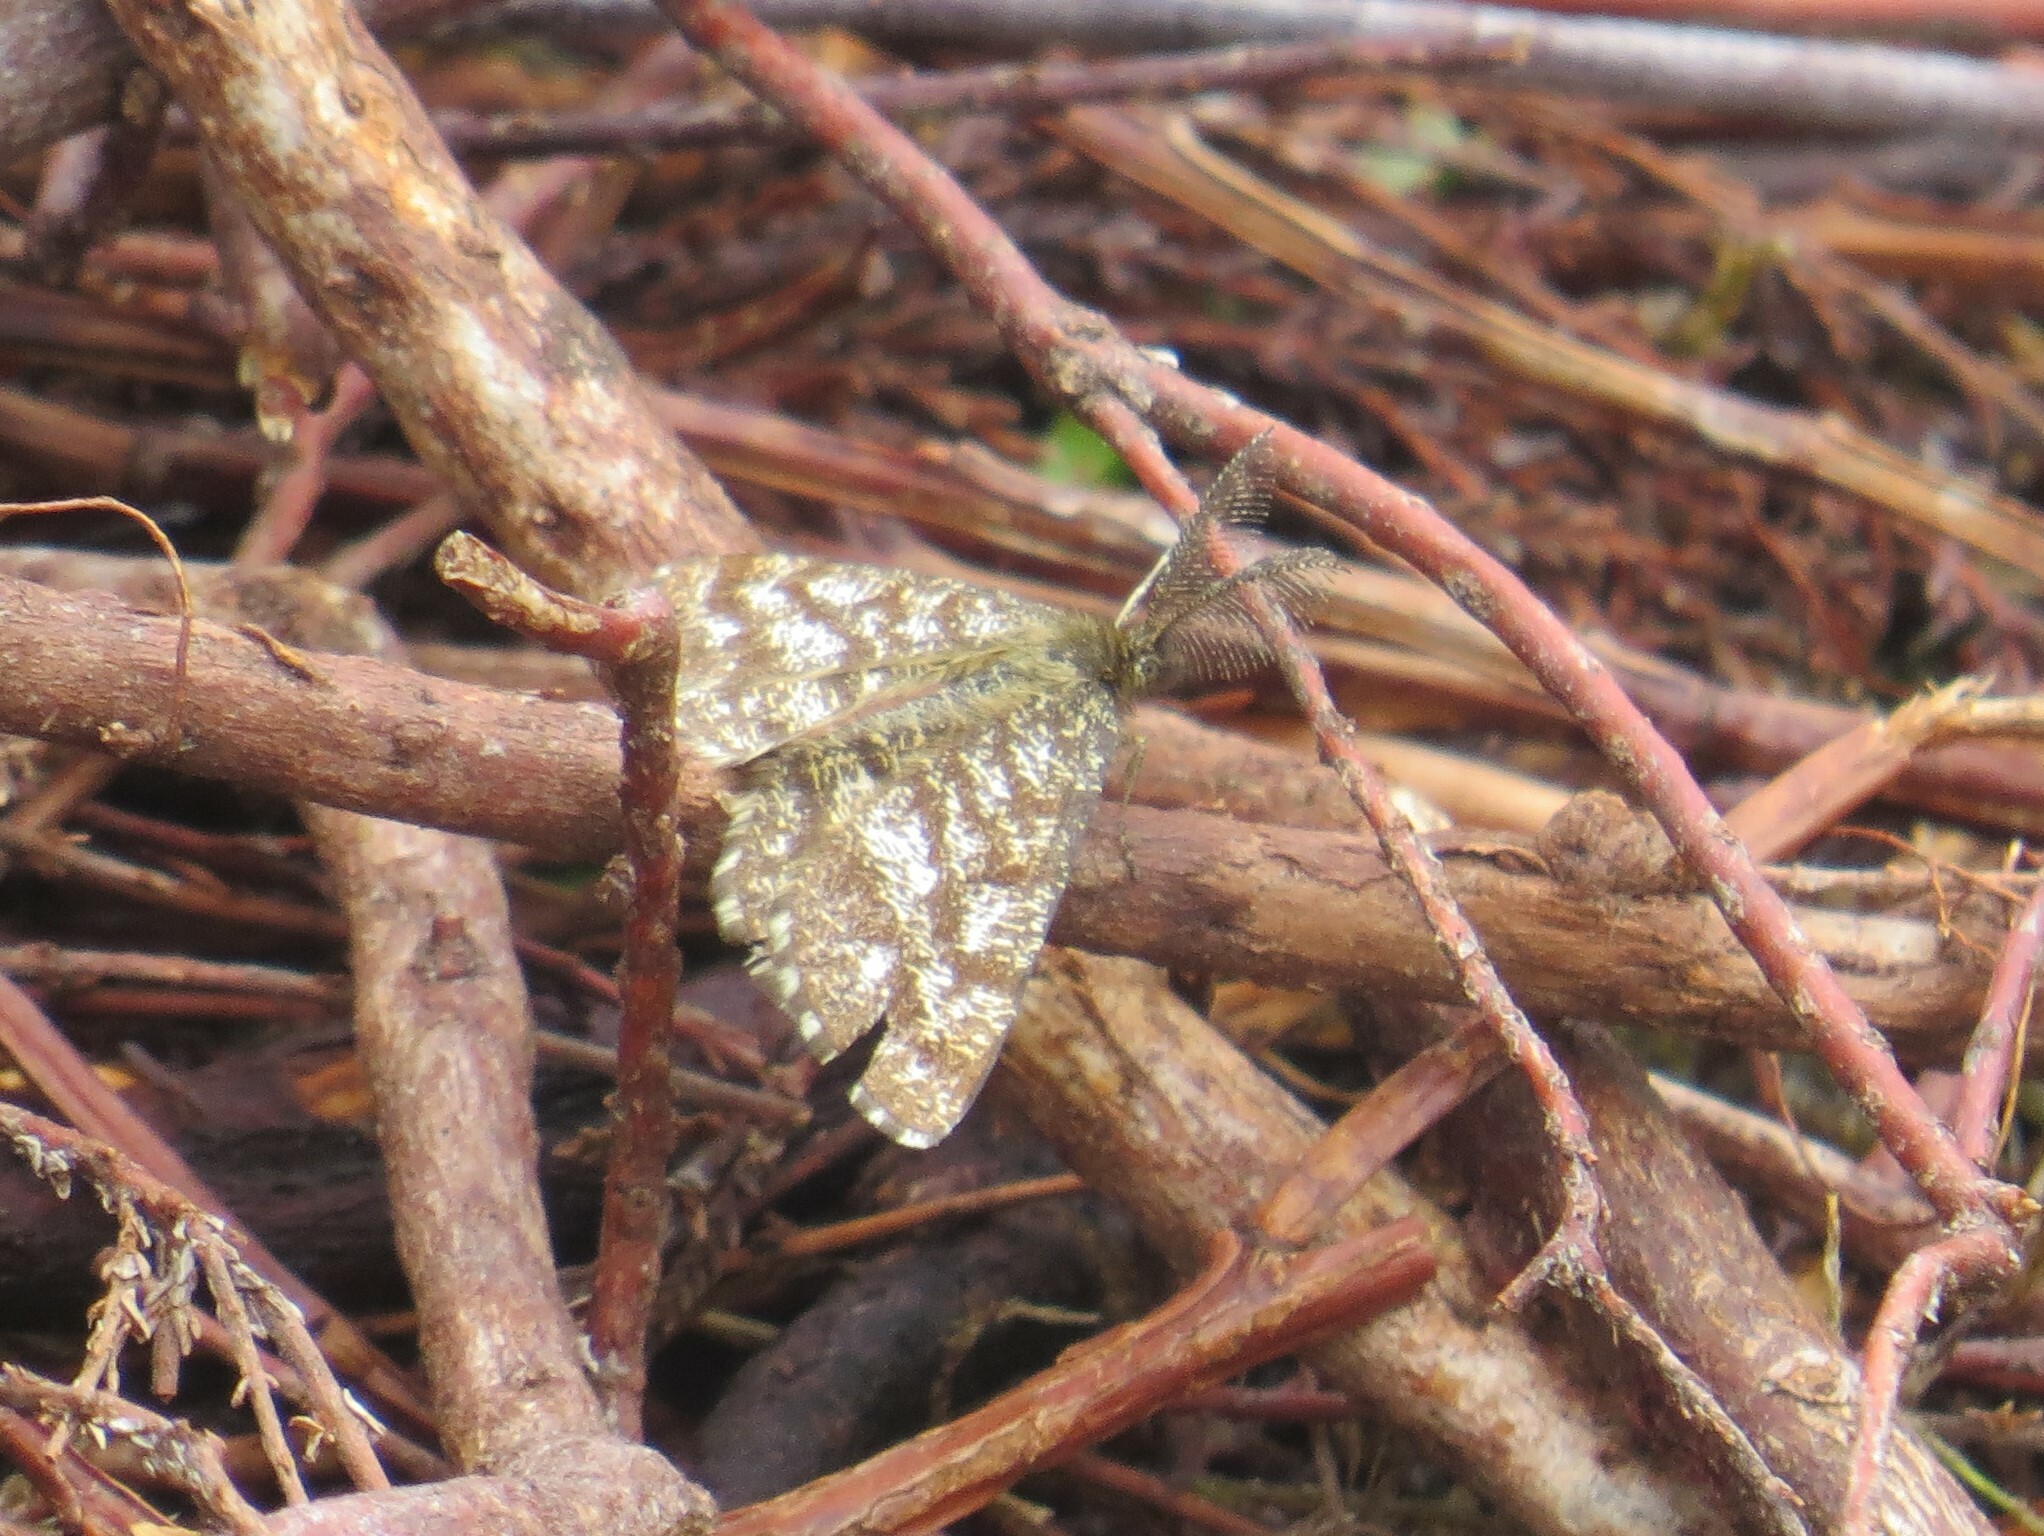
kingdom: Animalia
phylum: Arthropoda
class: Insecta
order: Lepidoptera
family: Geometridae
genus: Ematurga
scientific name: Ematurga atomaria
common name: Common heath
